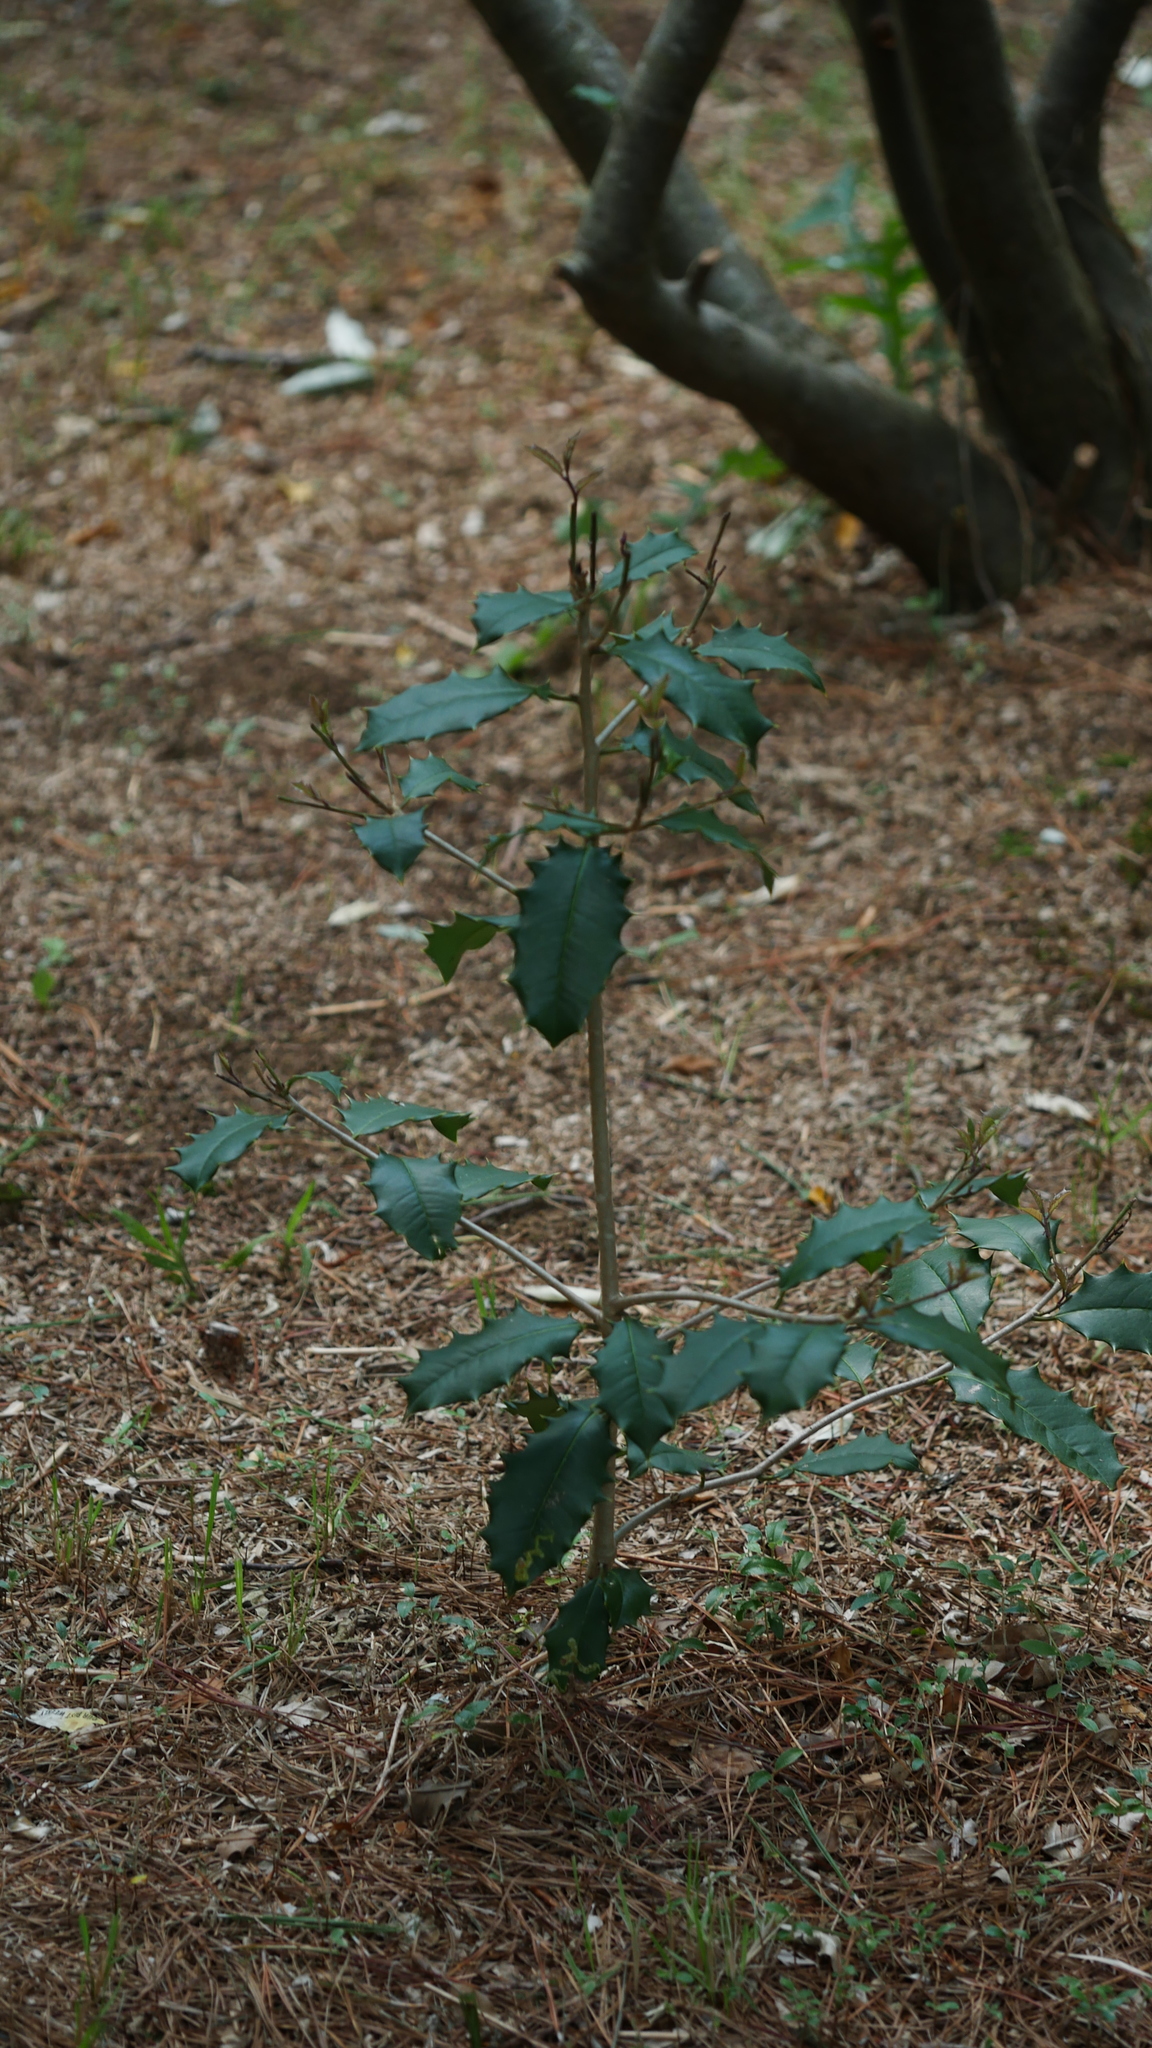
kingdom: Plantae
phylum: Tracheophyta
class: Magnoliopsida
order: Aquifoliales
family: Aquifoliaceae
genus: Ilex
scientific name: Ilex opaca
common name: American holly
